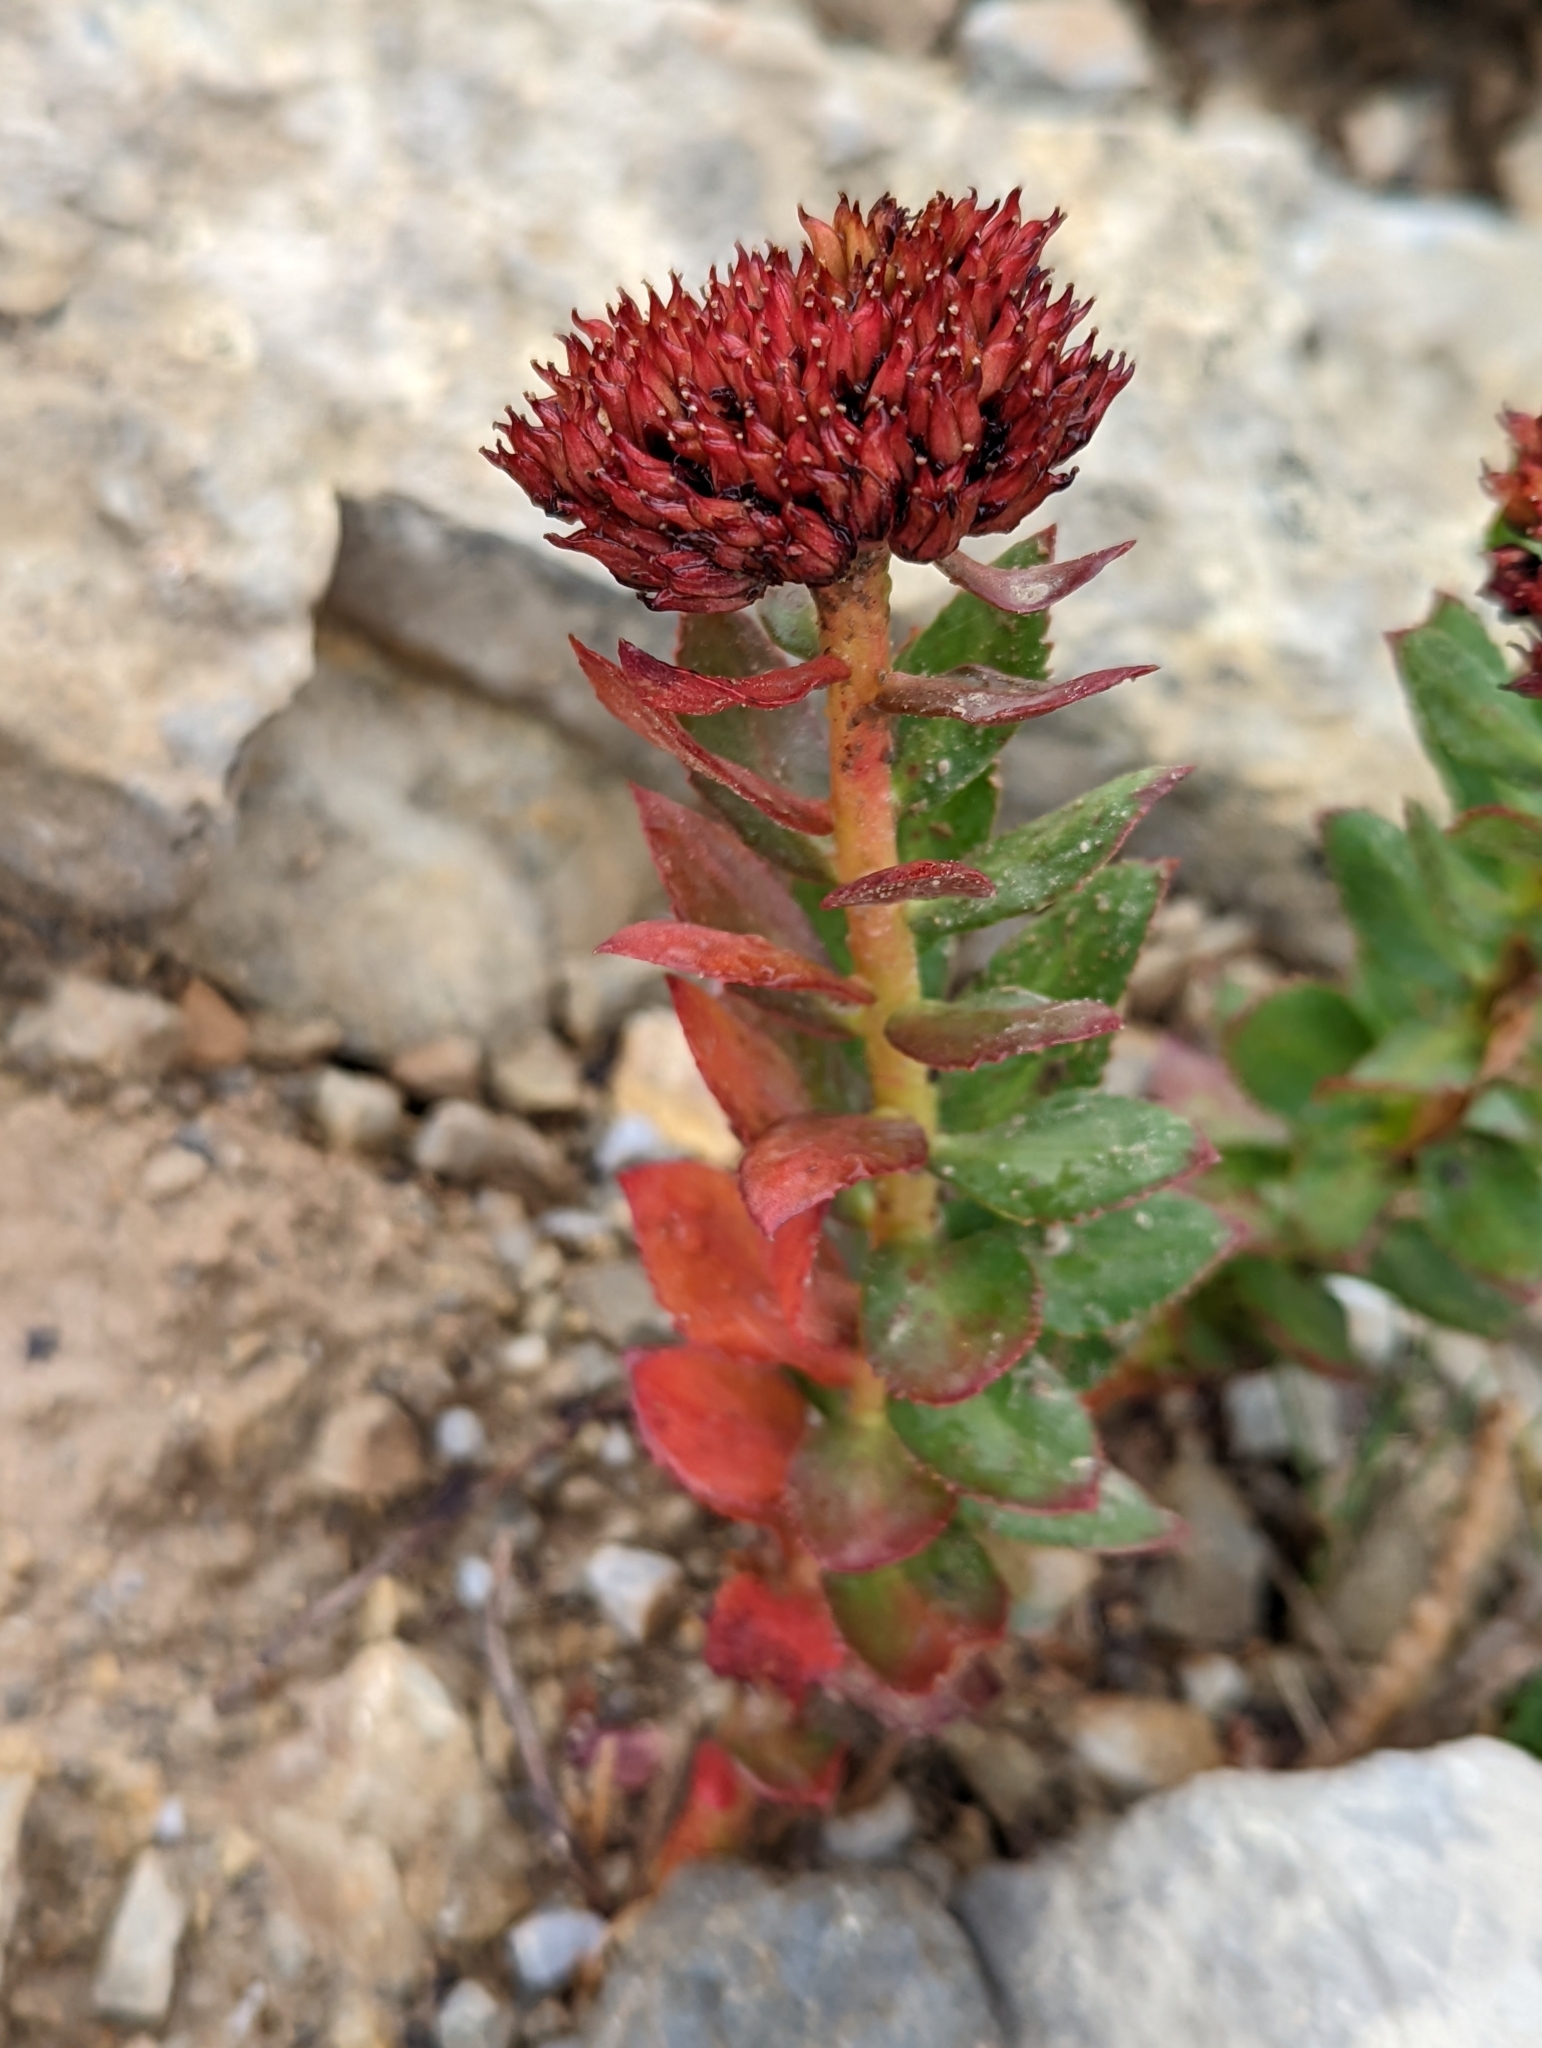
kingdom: Plantae
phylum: Tracheophyta
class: Magnoliopsida
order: Saxifragales
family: Crassulaceae
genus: Rhodiola
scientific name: Rhodiola integrifolia
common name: Western roseroot
